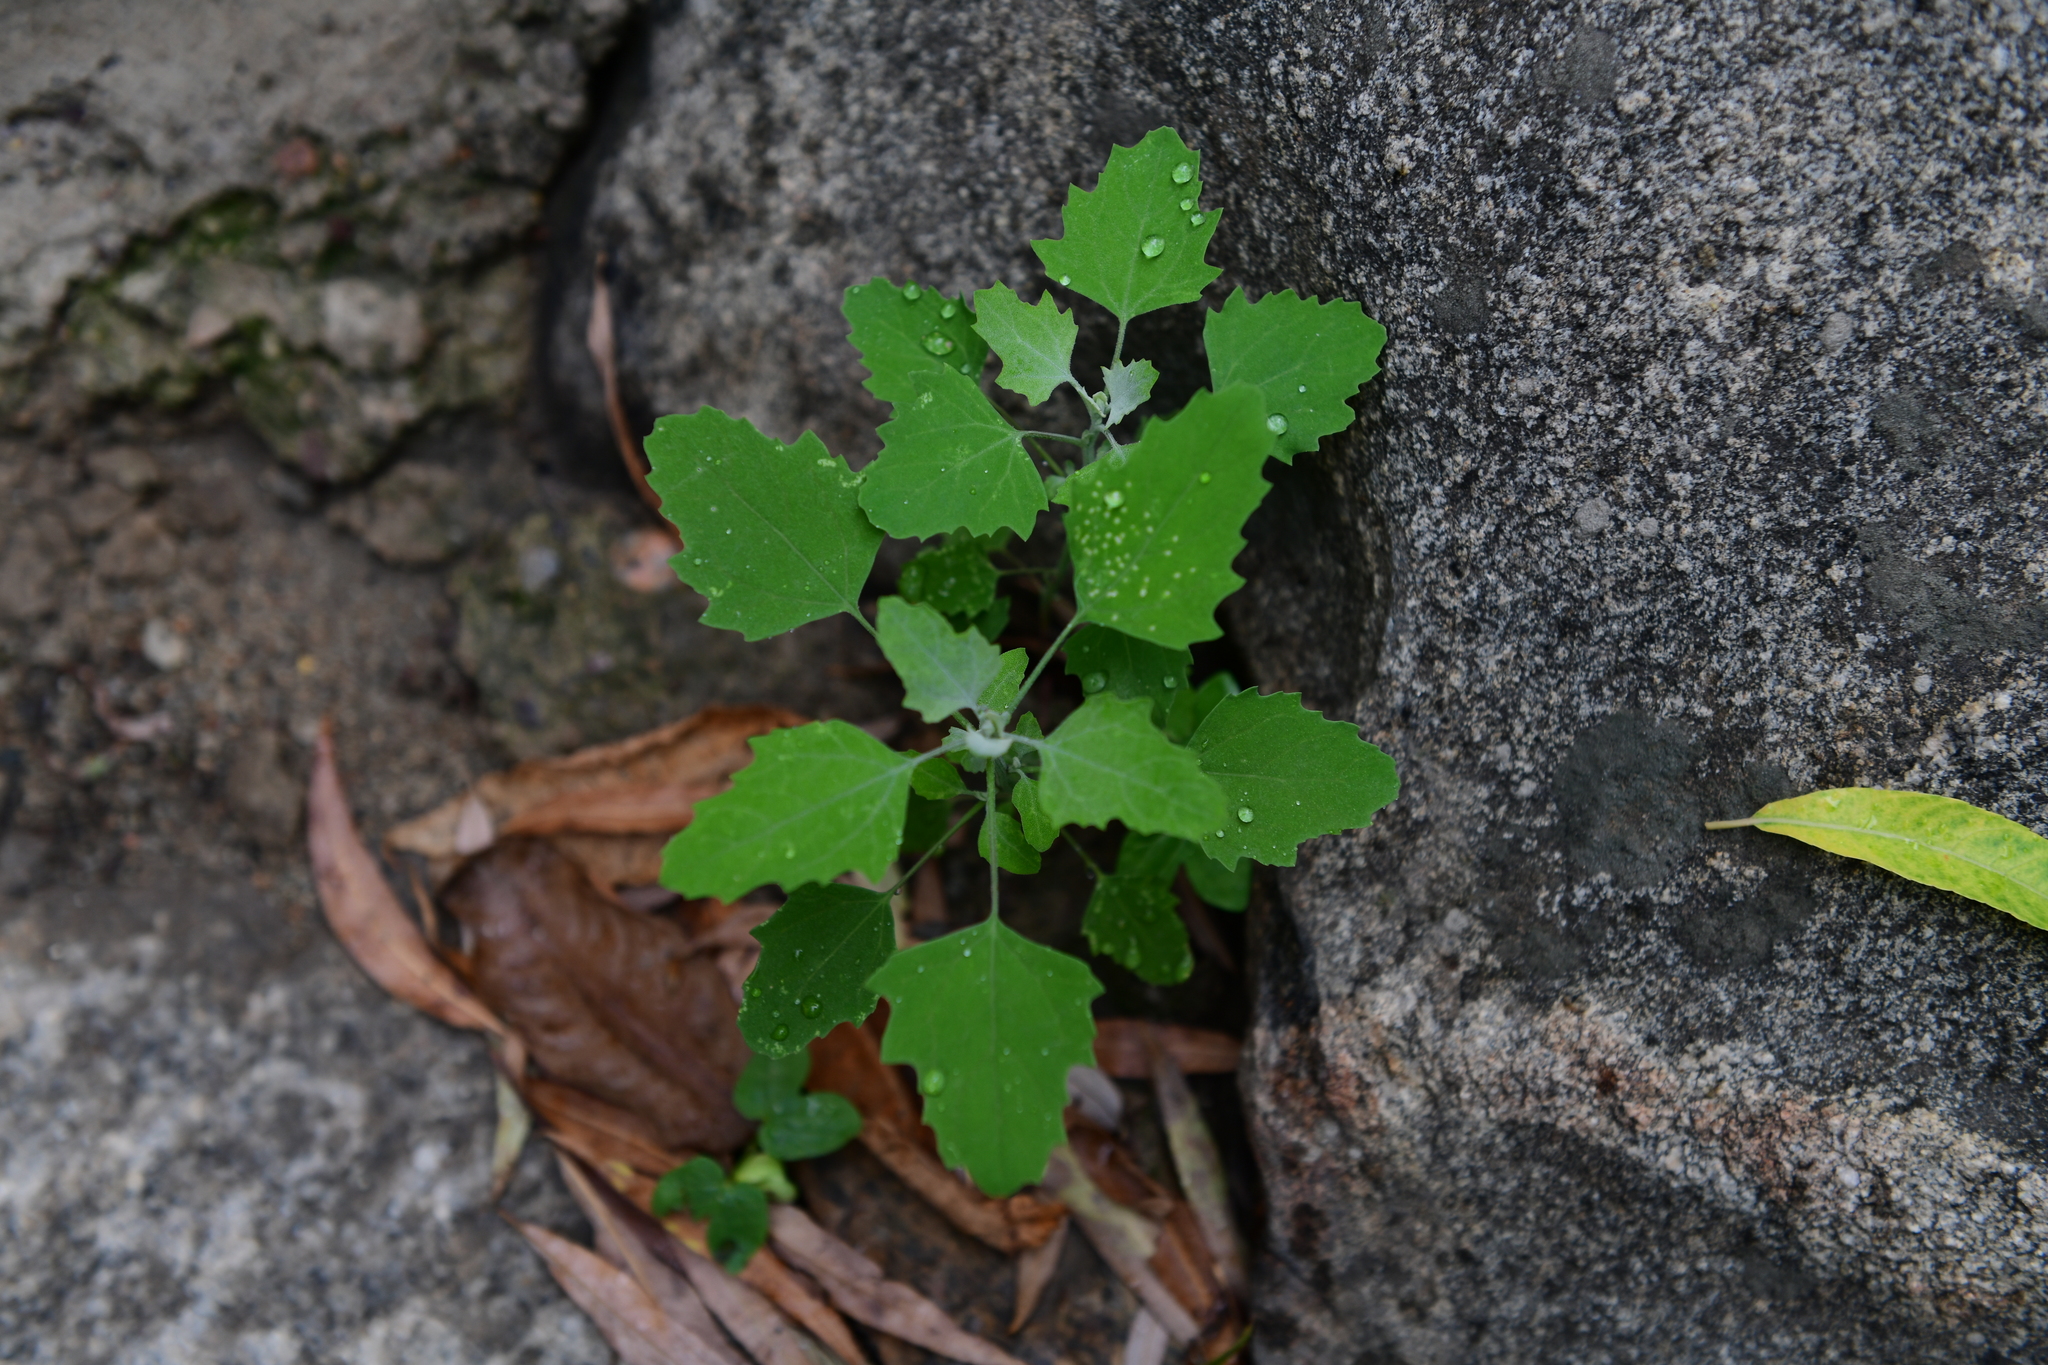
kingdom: Plantae
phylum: Tracheophyta
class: Magnoliopsida
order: Caryophyllales
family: Amaranthaceae
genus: Chenopodium
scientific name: Chenopodium album
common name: Fat-hen
